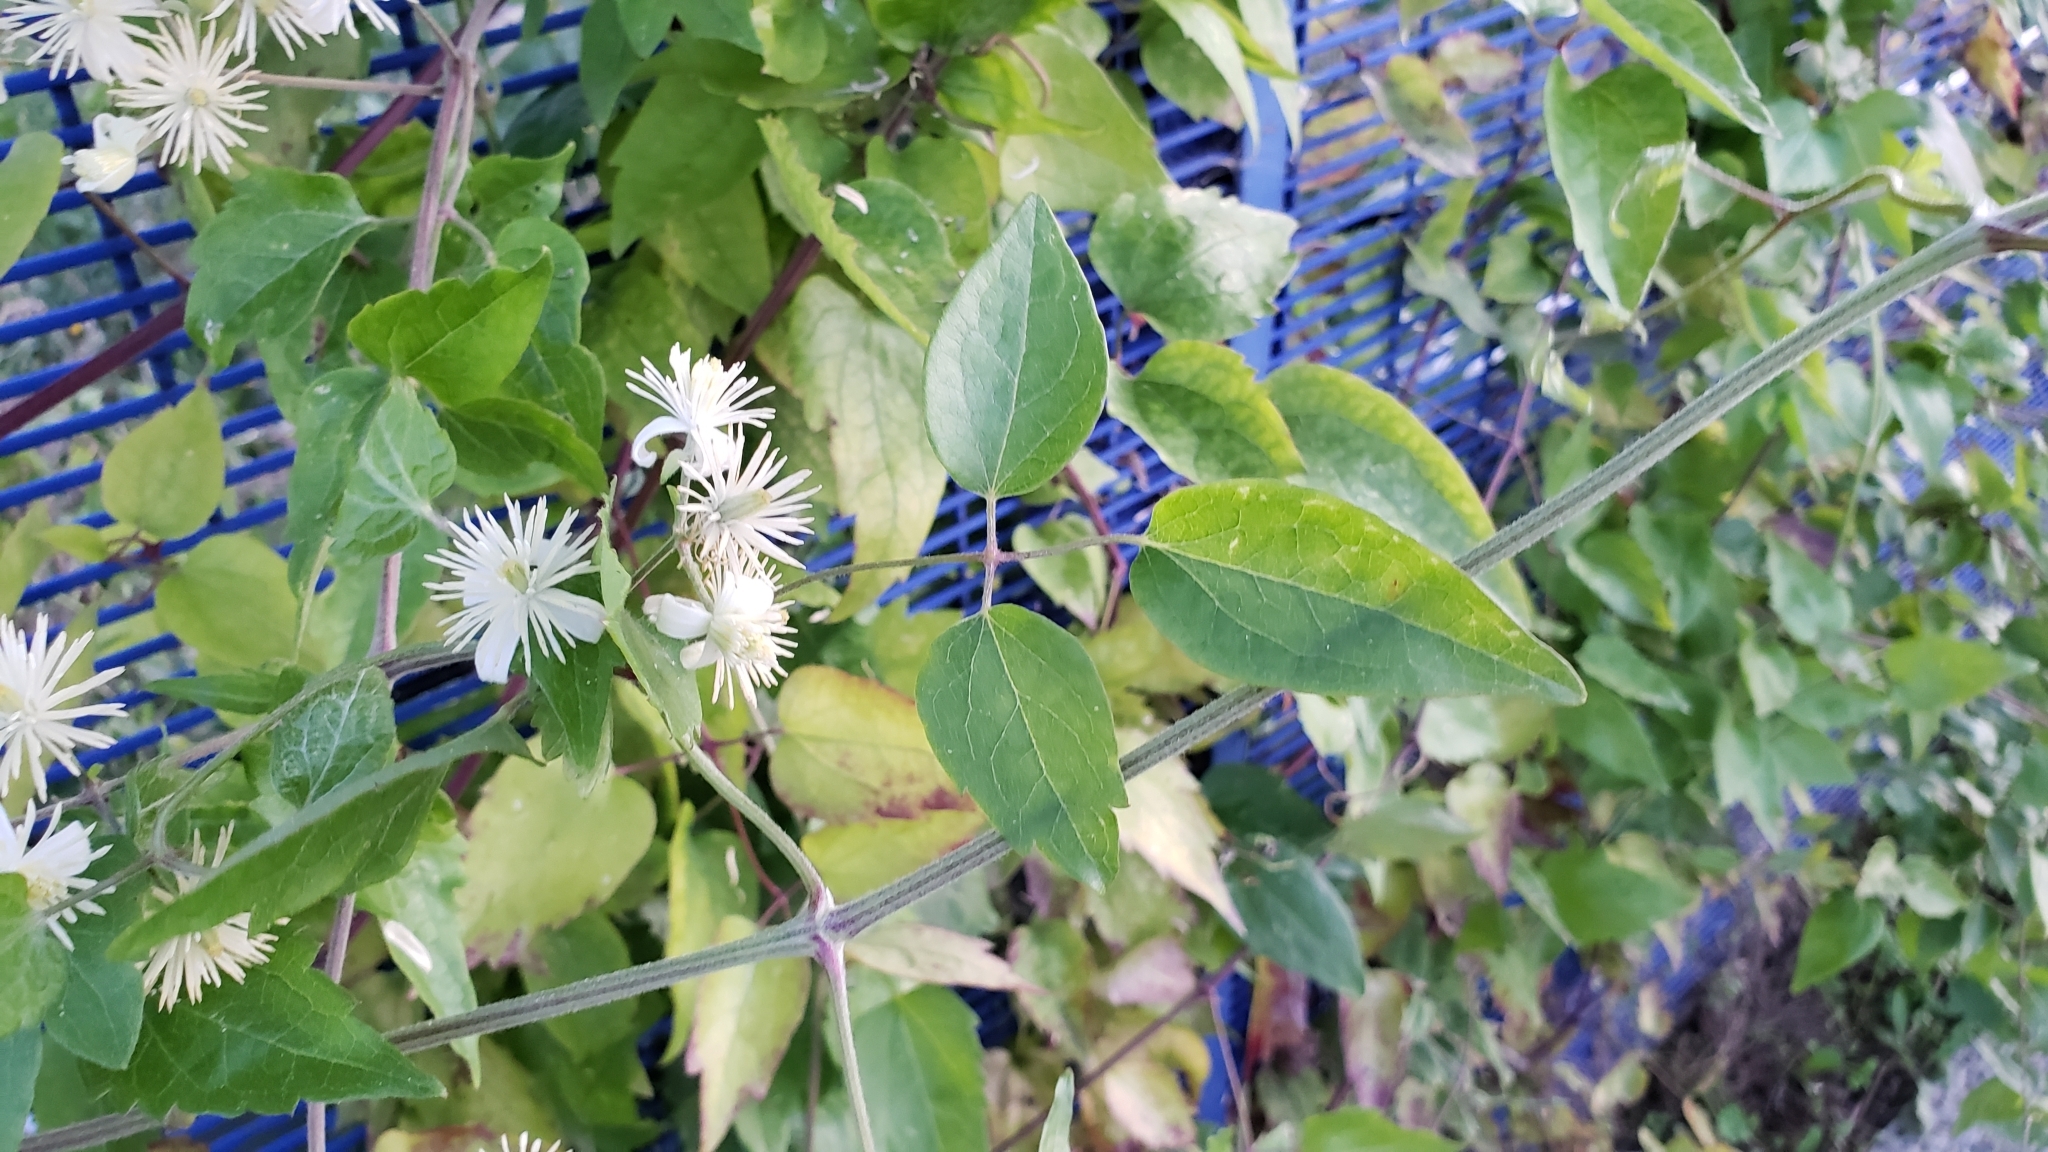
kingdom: Plantae
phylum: Tracheophyta
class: Magnoliopsida
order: Ranunculales
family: Ranunculaceae
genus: Clematis
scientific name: Clematis vitalba
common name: Evergreen clematis
